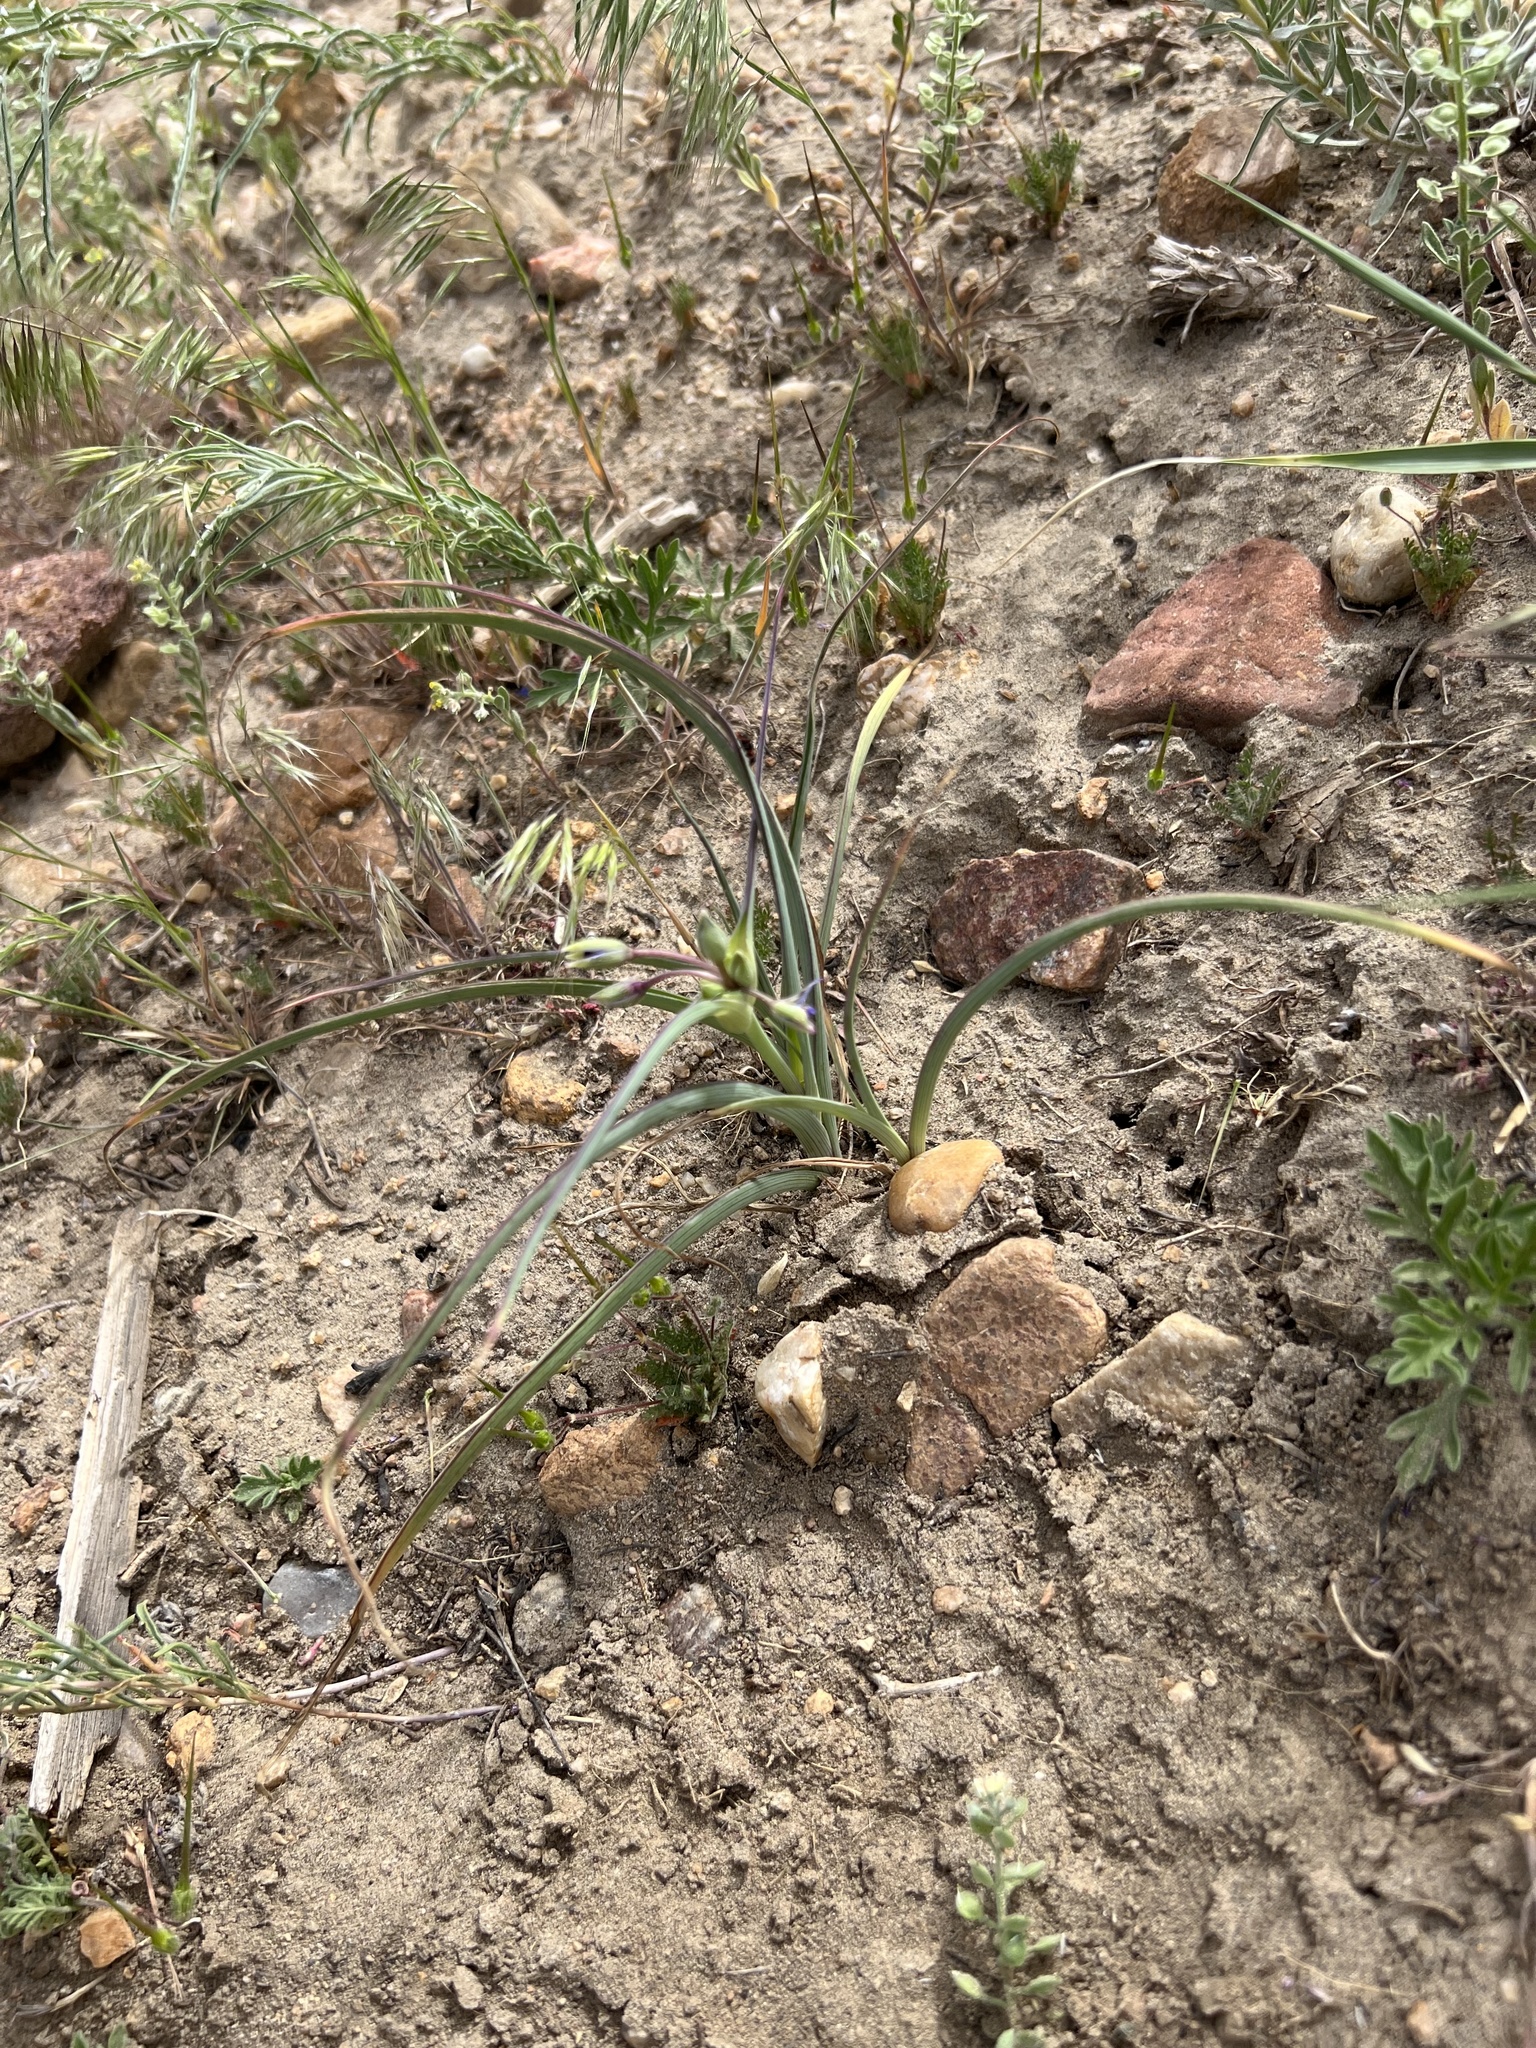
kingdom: Plantae
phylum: Tracheophyta
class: Liliopsida
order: Commelinales
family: Commelinaceae
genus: Tradescantia
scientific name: Tradescantia occidentalis
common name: Prairie spiderwort
